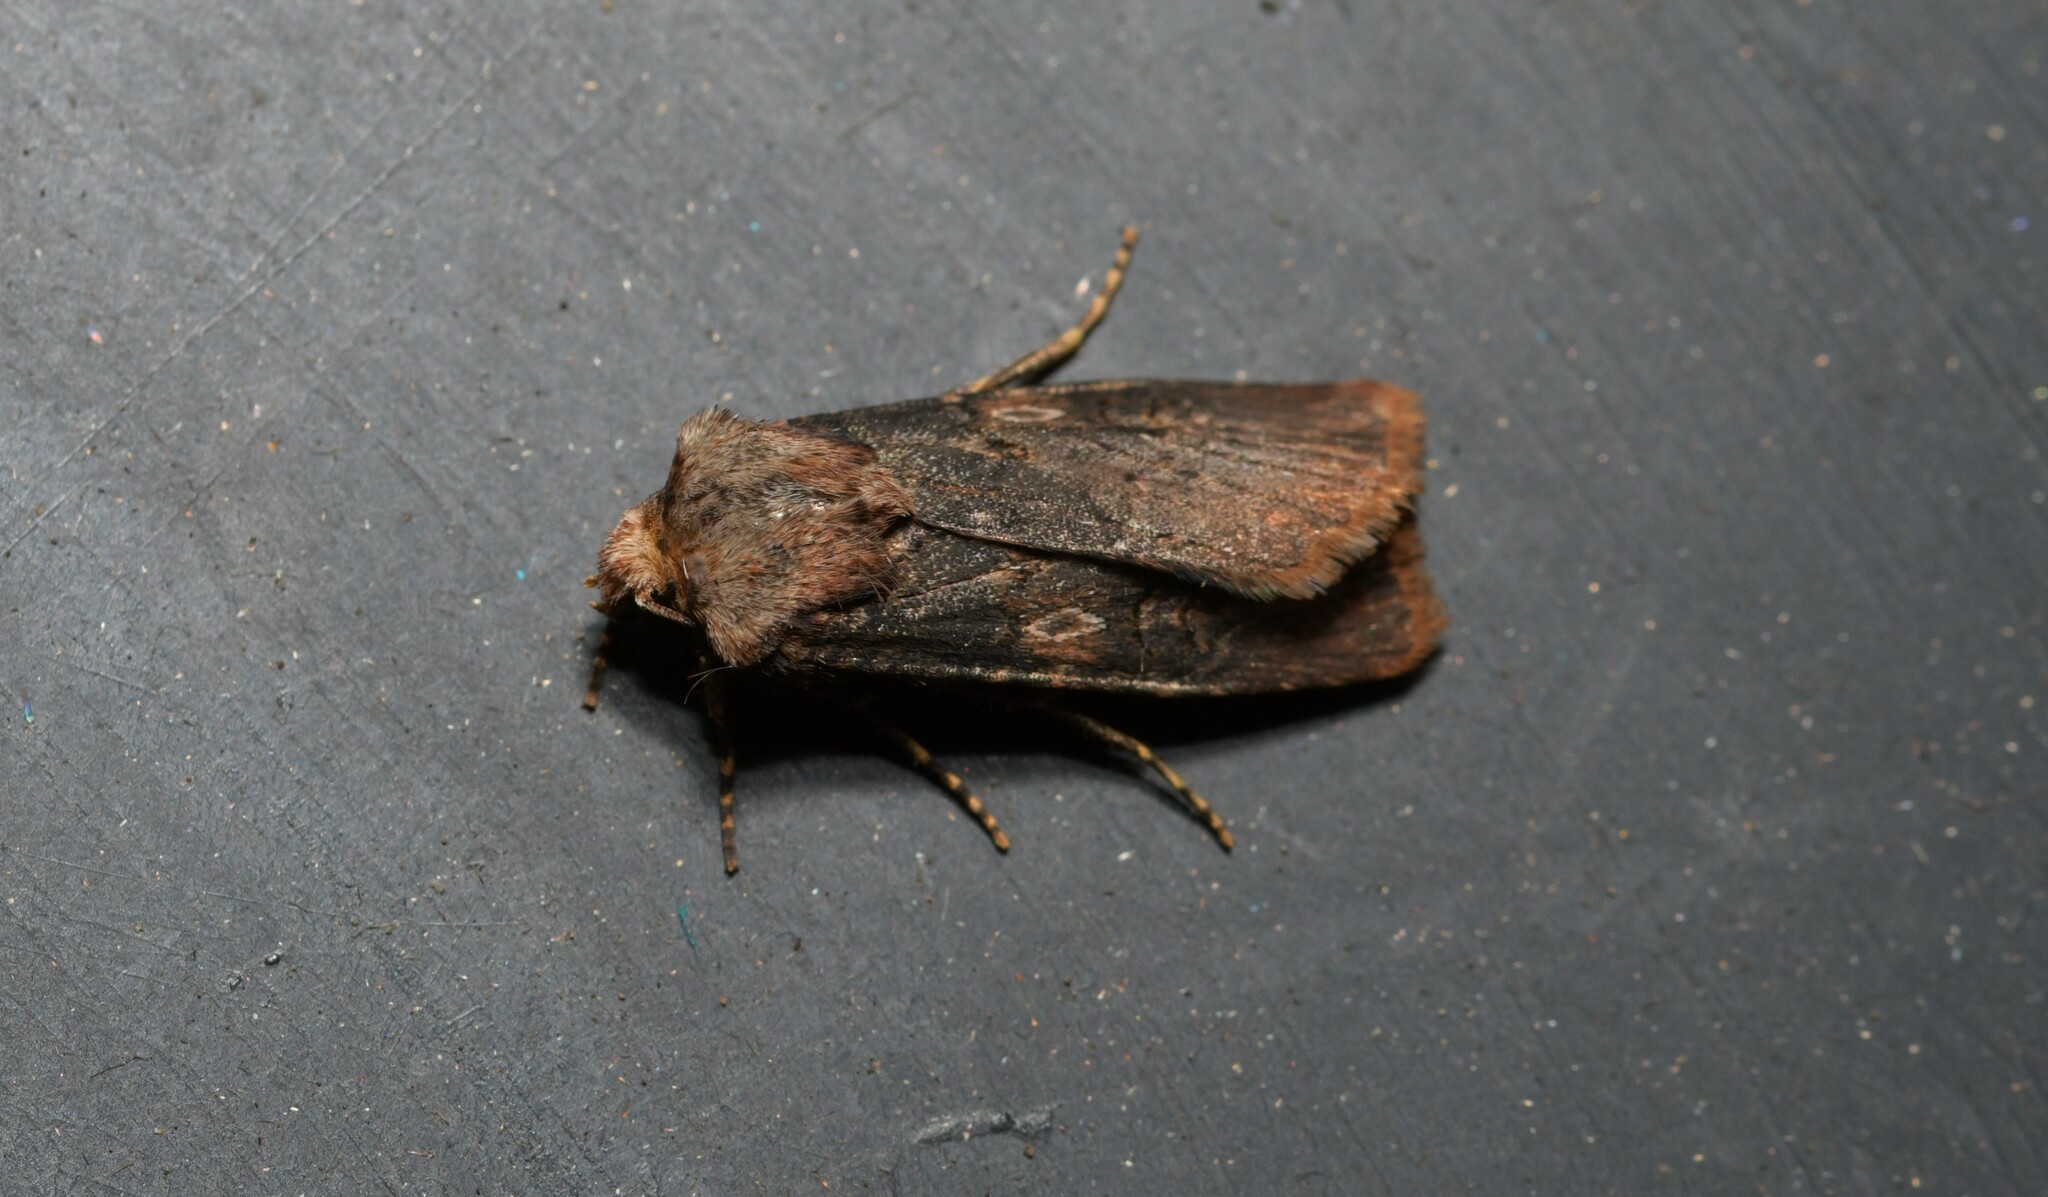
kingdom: Animalia
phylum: Arthropoda
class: Insecta
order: Lepidoptera
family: Noctuidae
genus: Agrotis
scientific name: Agrotis puta
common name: Shuttle-shaped dart
